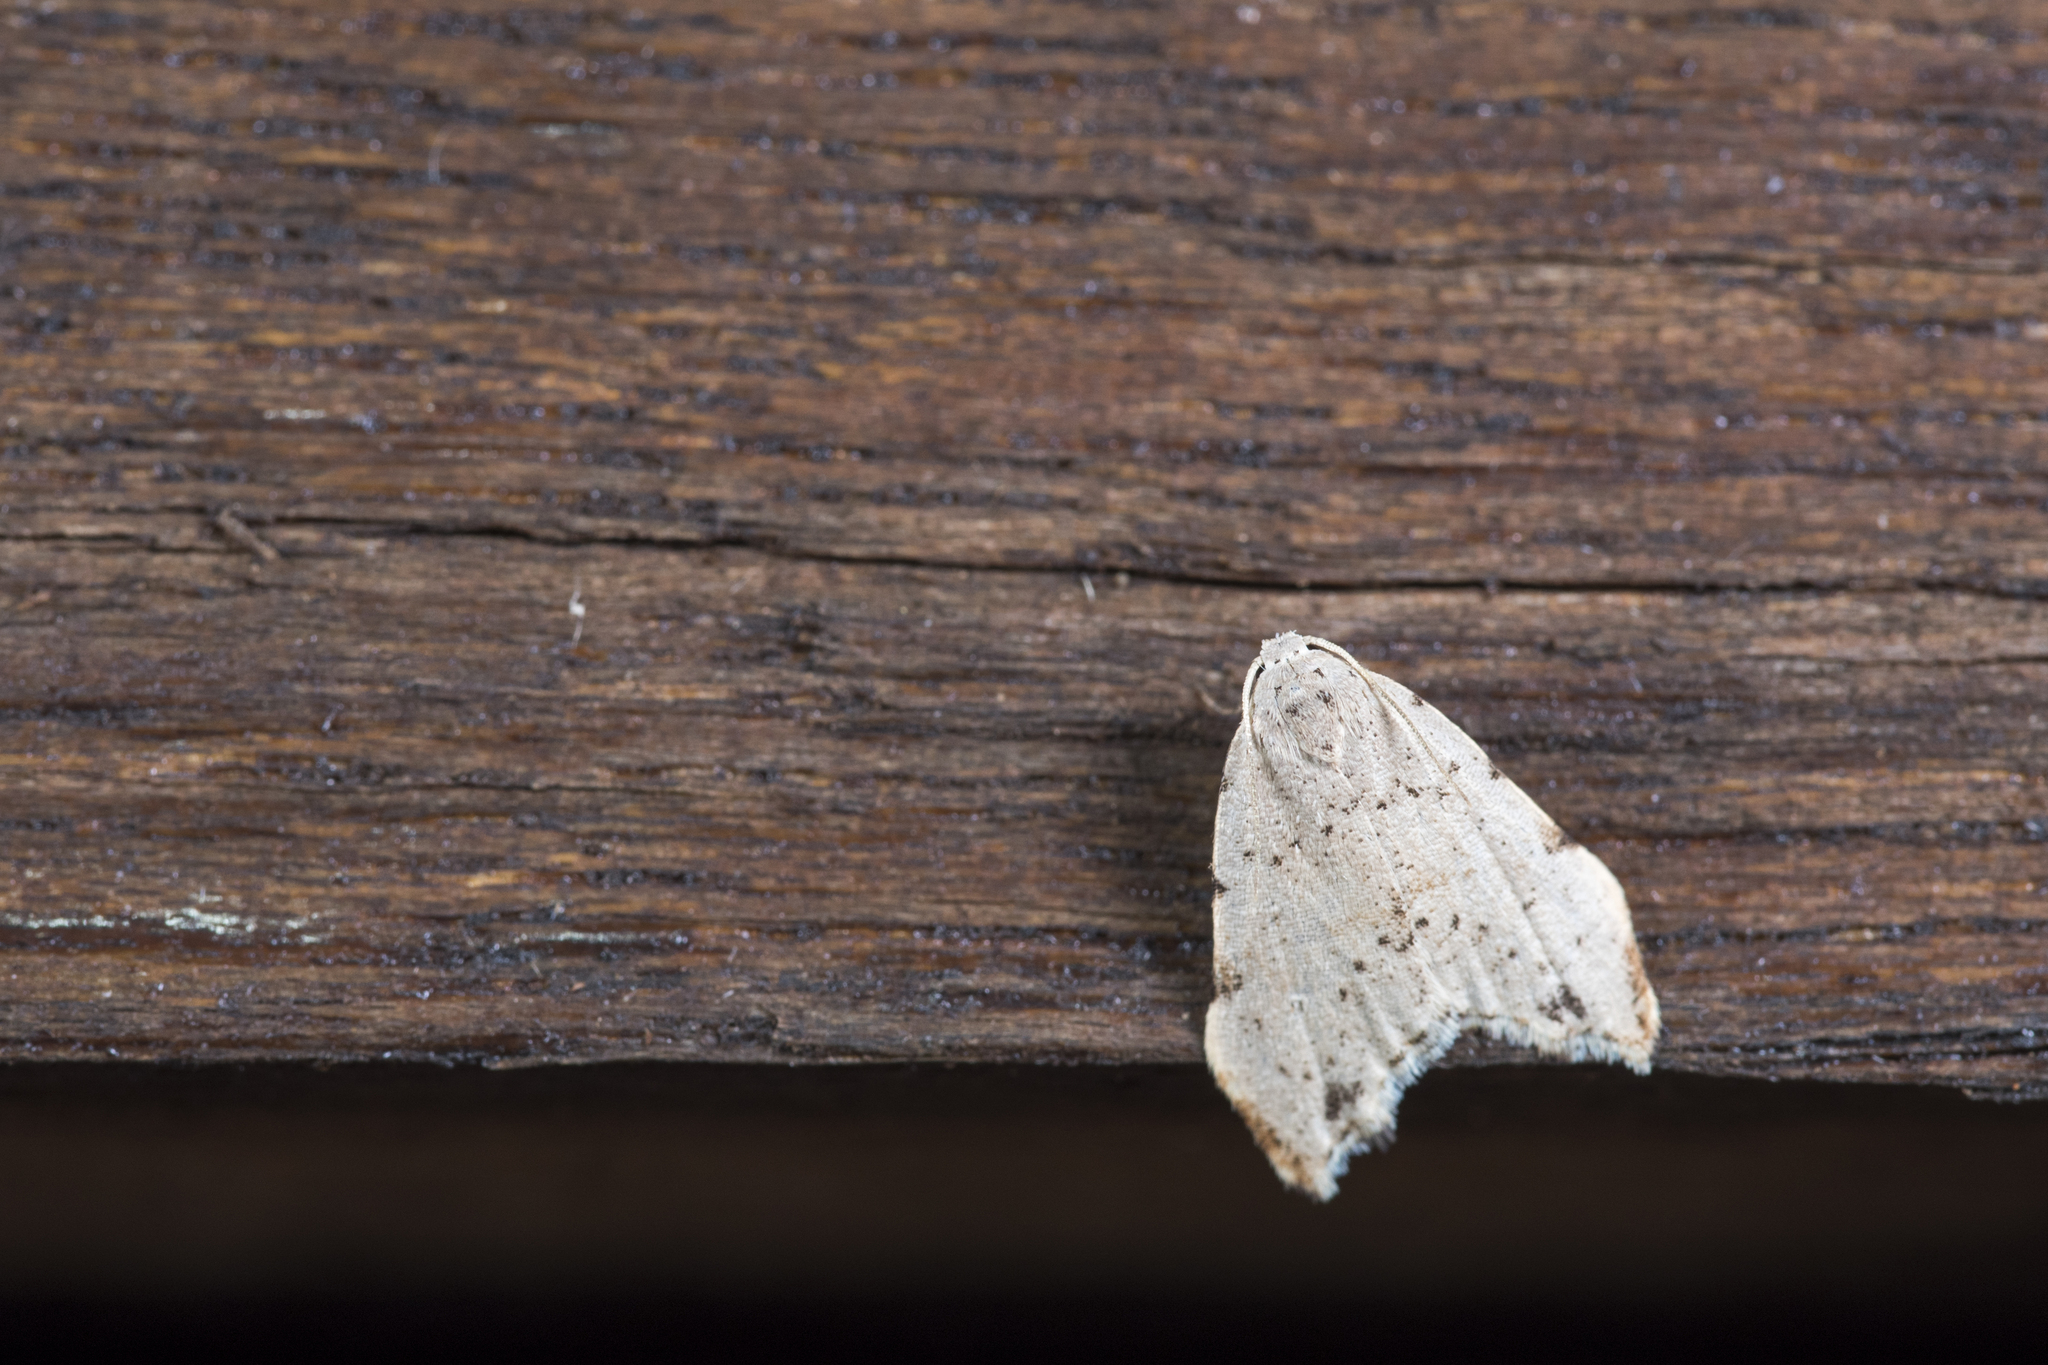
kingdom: Animalia
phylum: Arthropoda
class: Insecta
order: Lepidoptera
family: Erebidae
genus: Oxacme
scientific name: Oxacme cretacea
